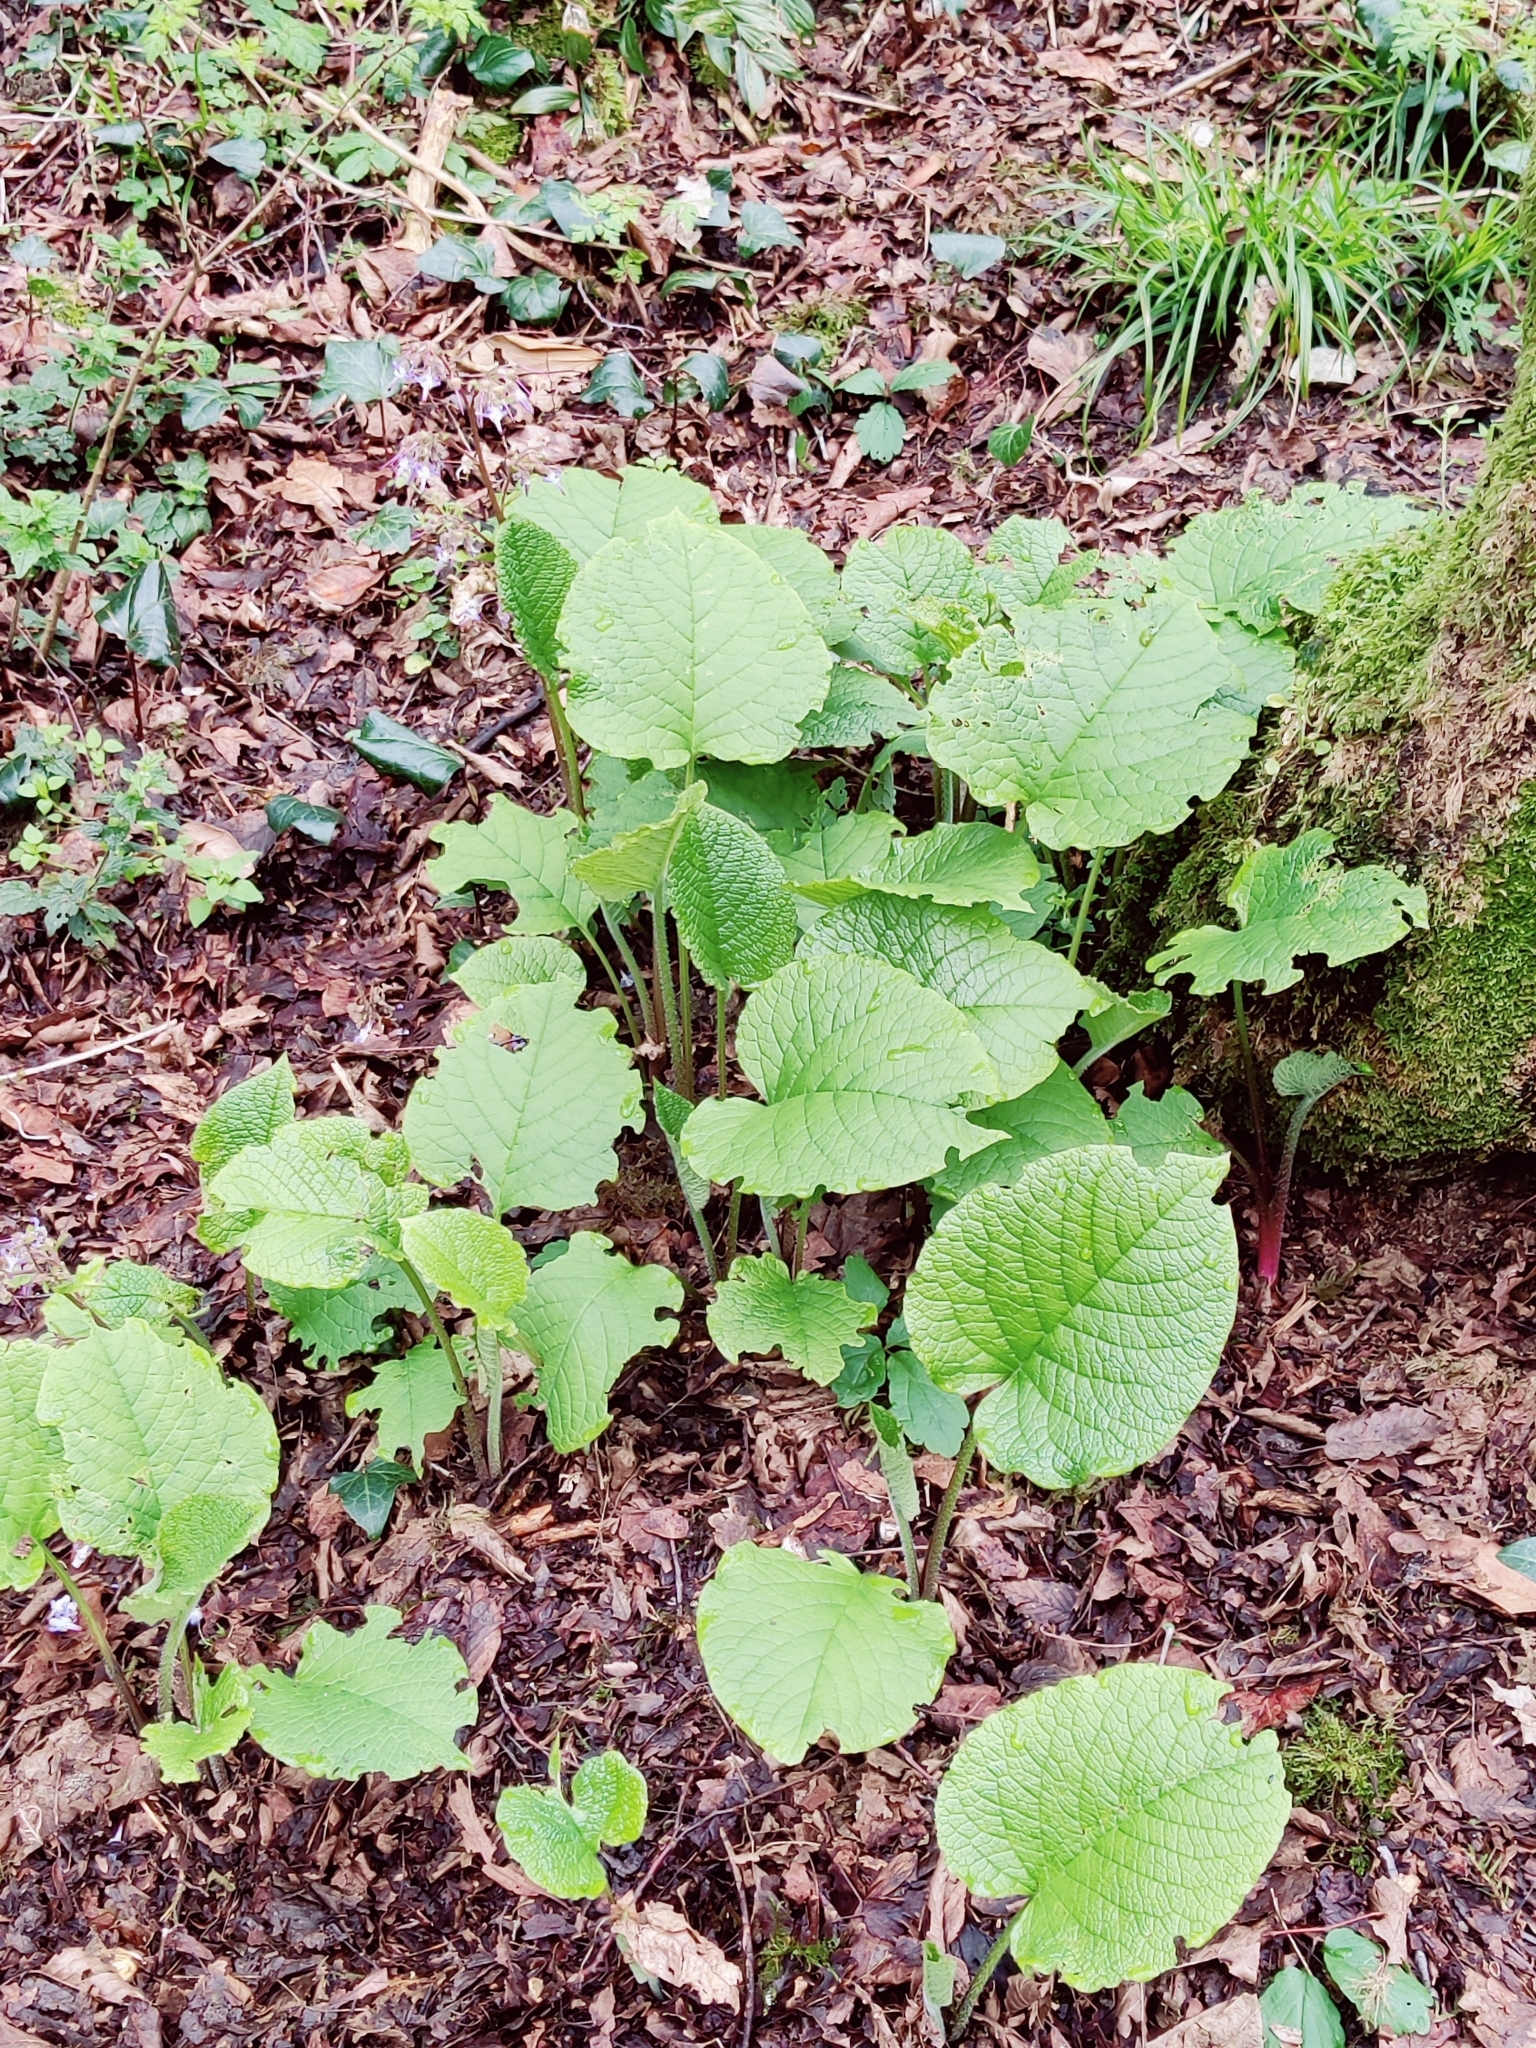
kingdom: Plantae
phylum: Tracheophyta
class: Magnoliopsida
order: Boraginales
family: Boraginaceae
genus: Trachystemon
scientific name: Trachystemon orientale
